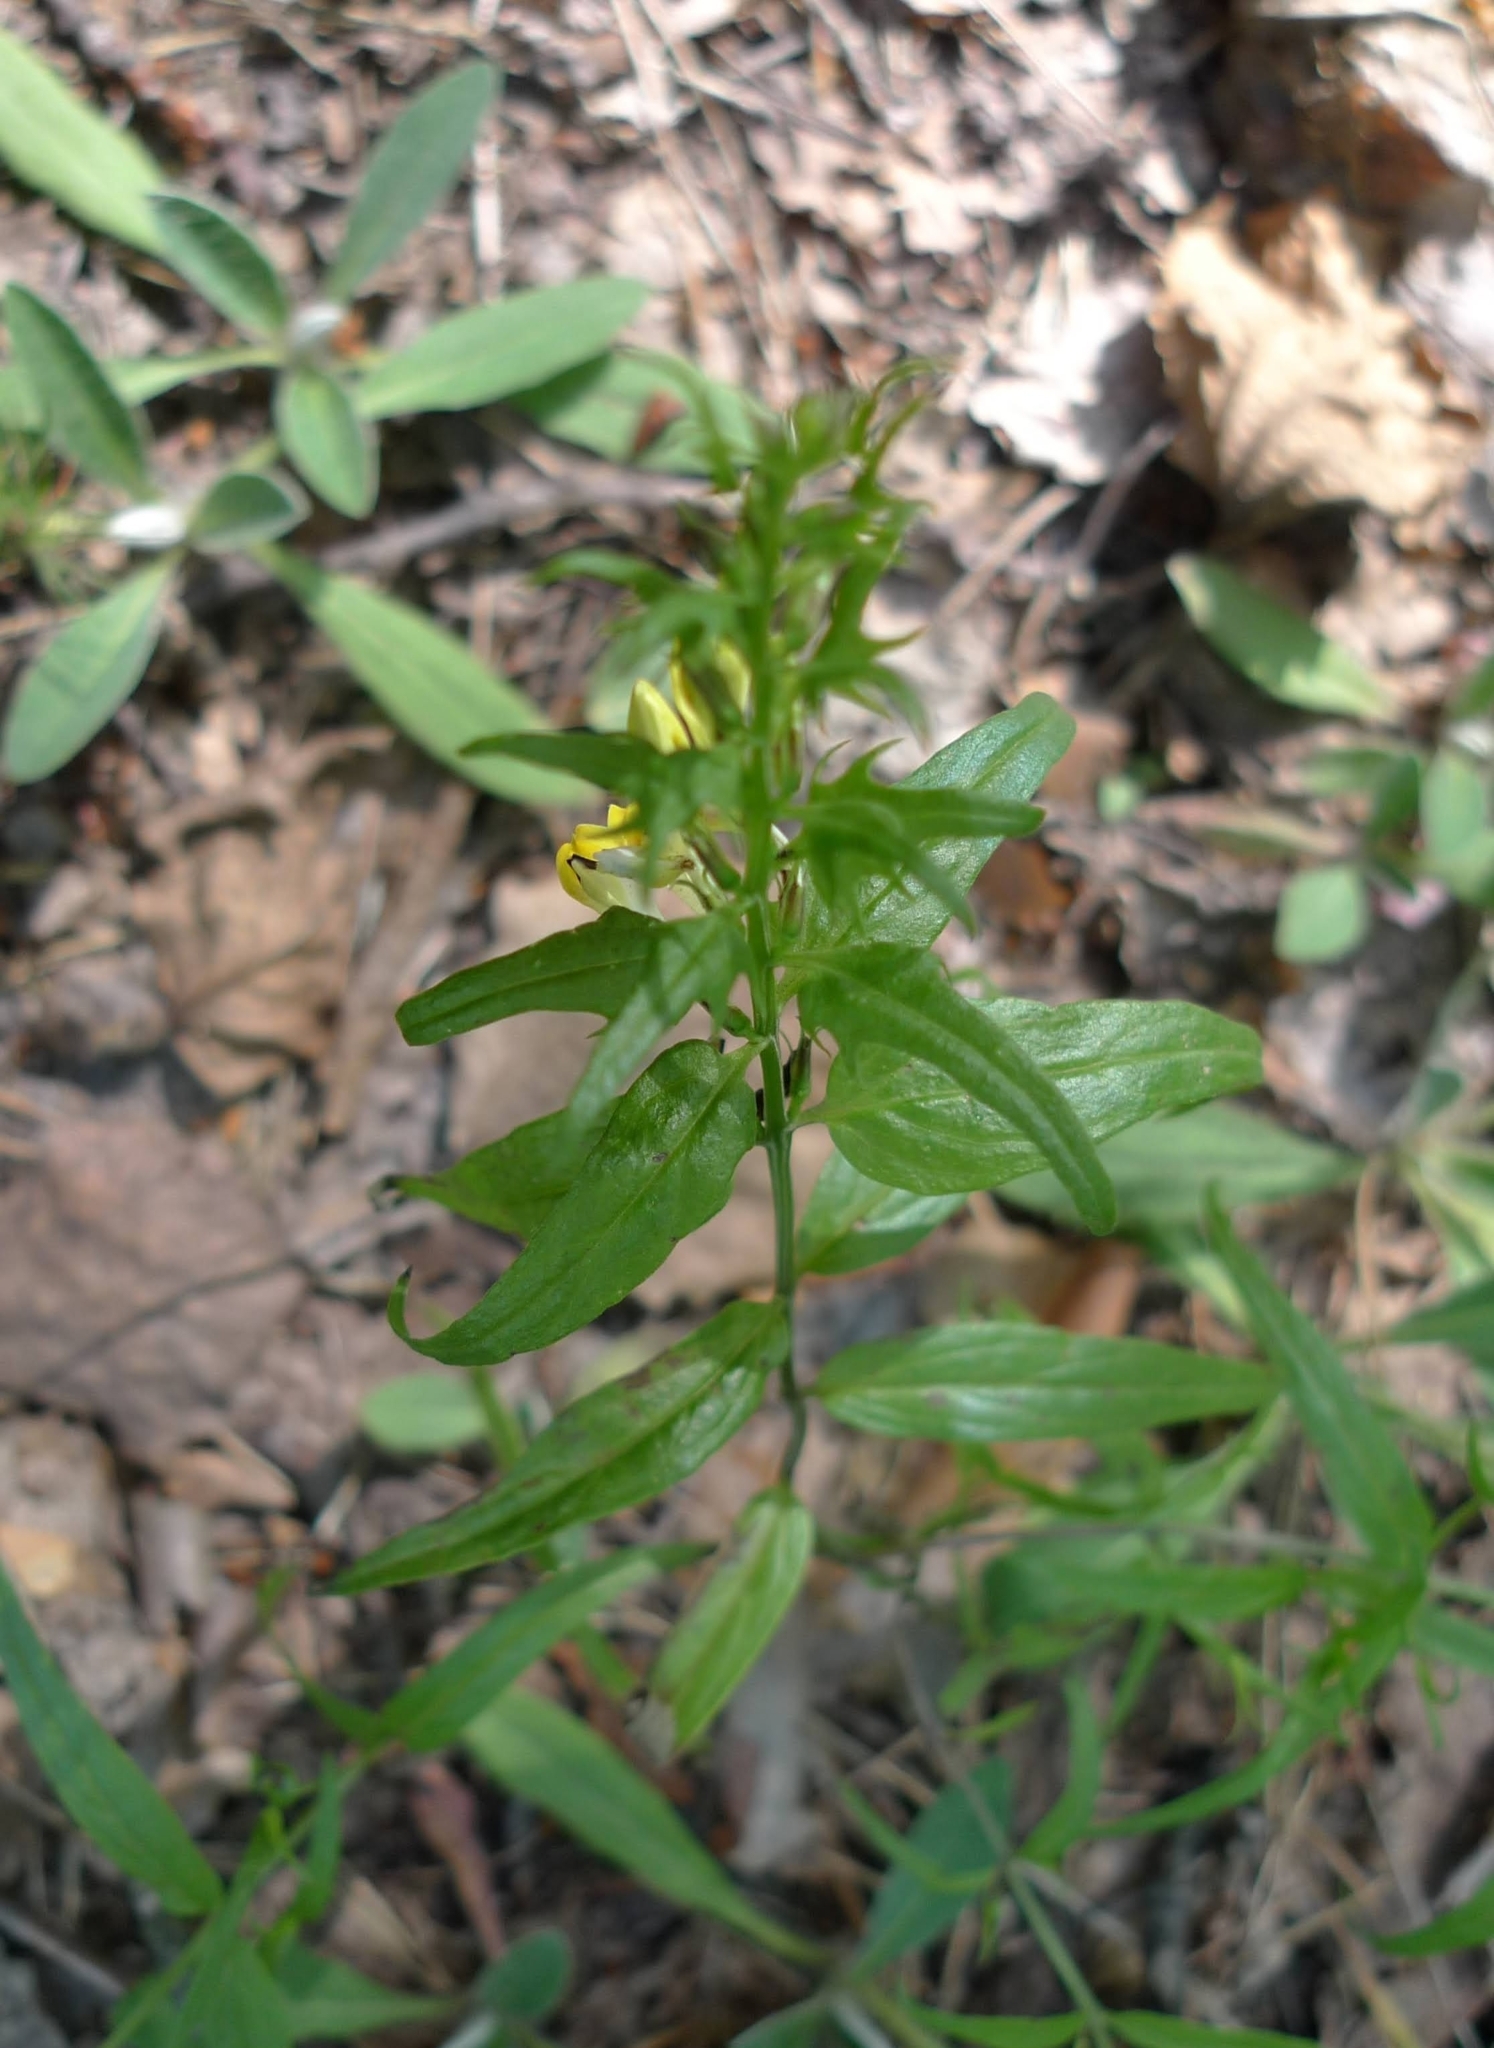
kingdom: Plantae
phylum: Tracheophyta
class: Magnoliopsida
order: Lamiales
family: Orobanchaceae
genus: Melampyrum
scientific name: Melampyrum pratense
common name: Common cow-wheat
